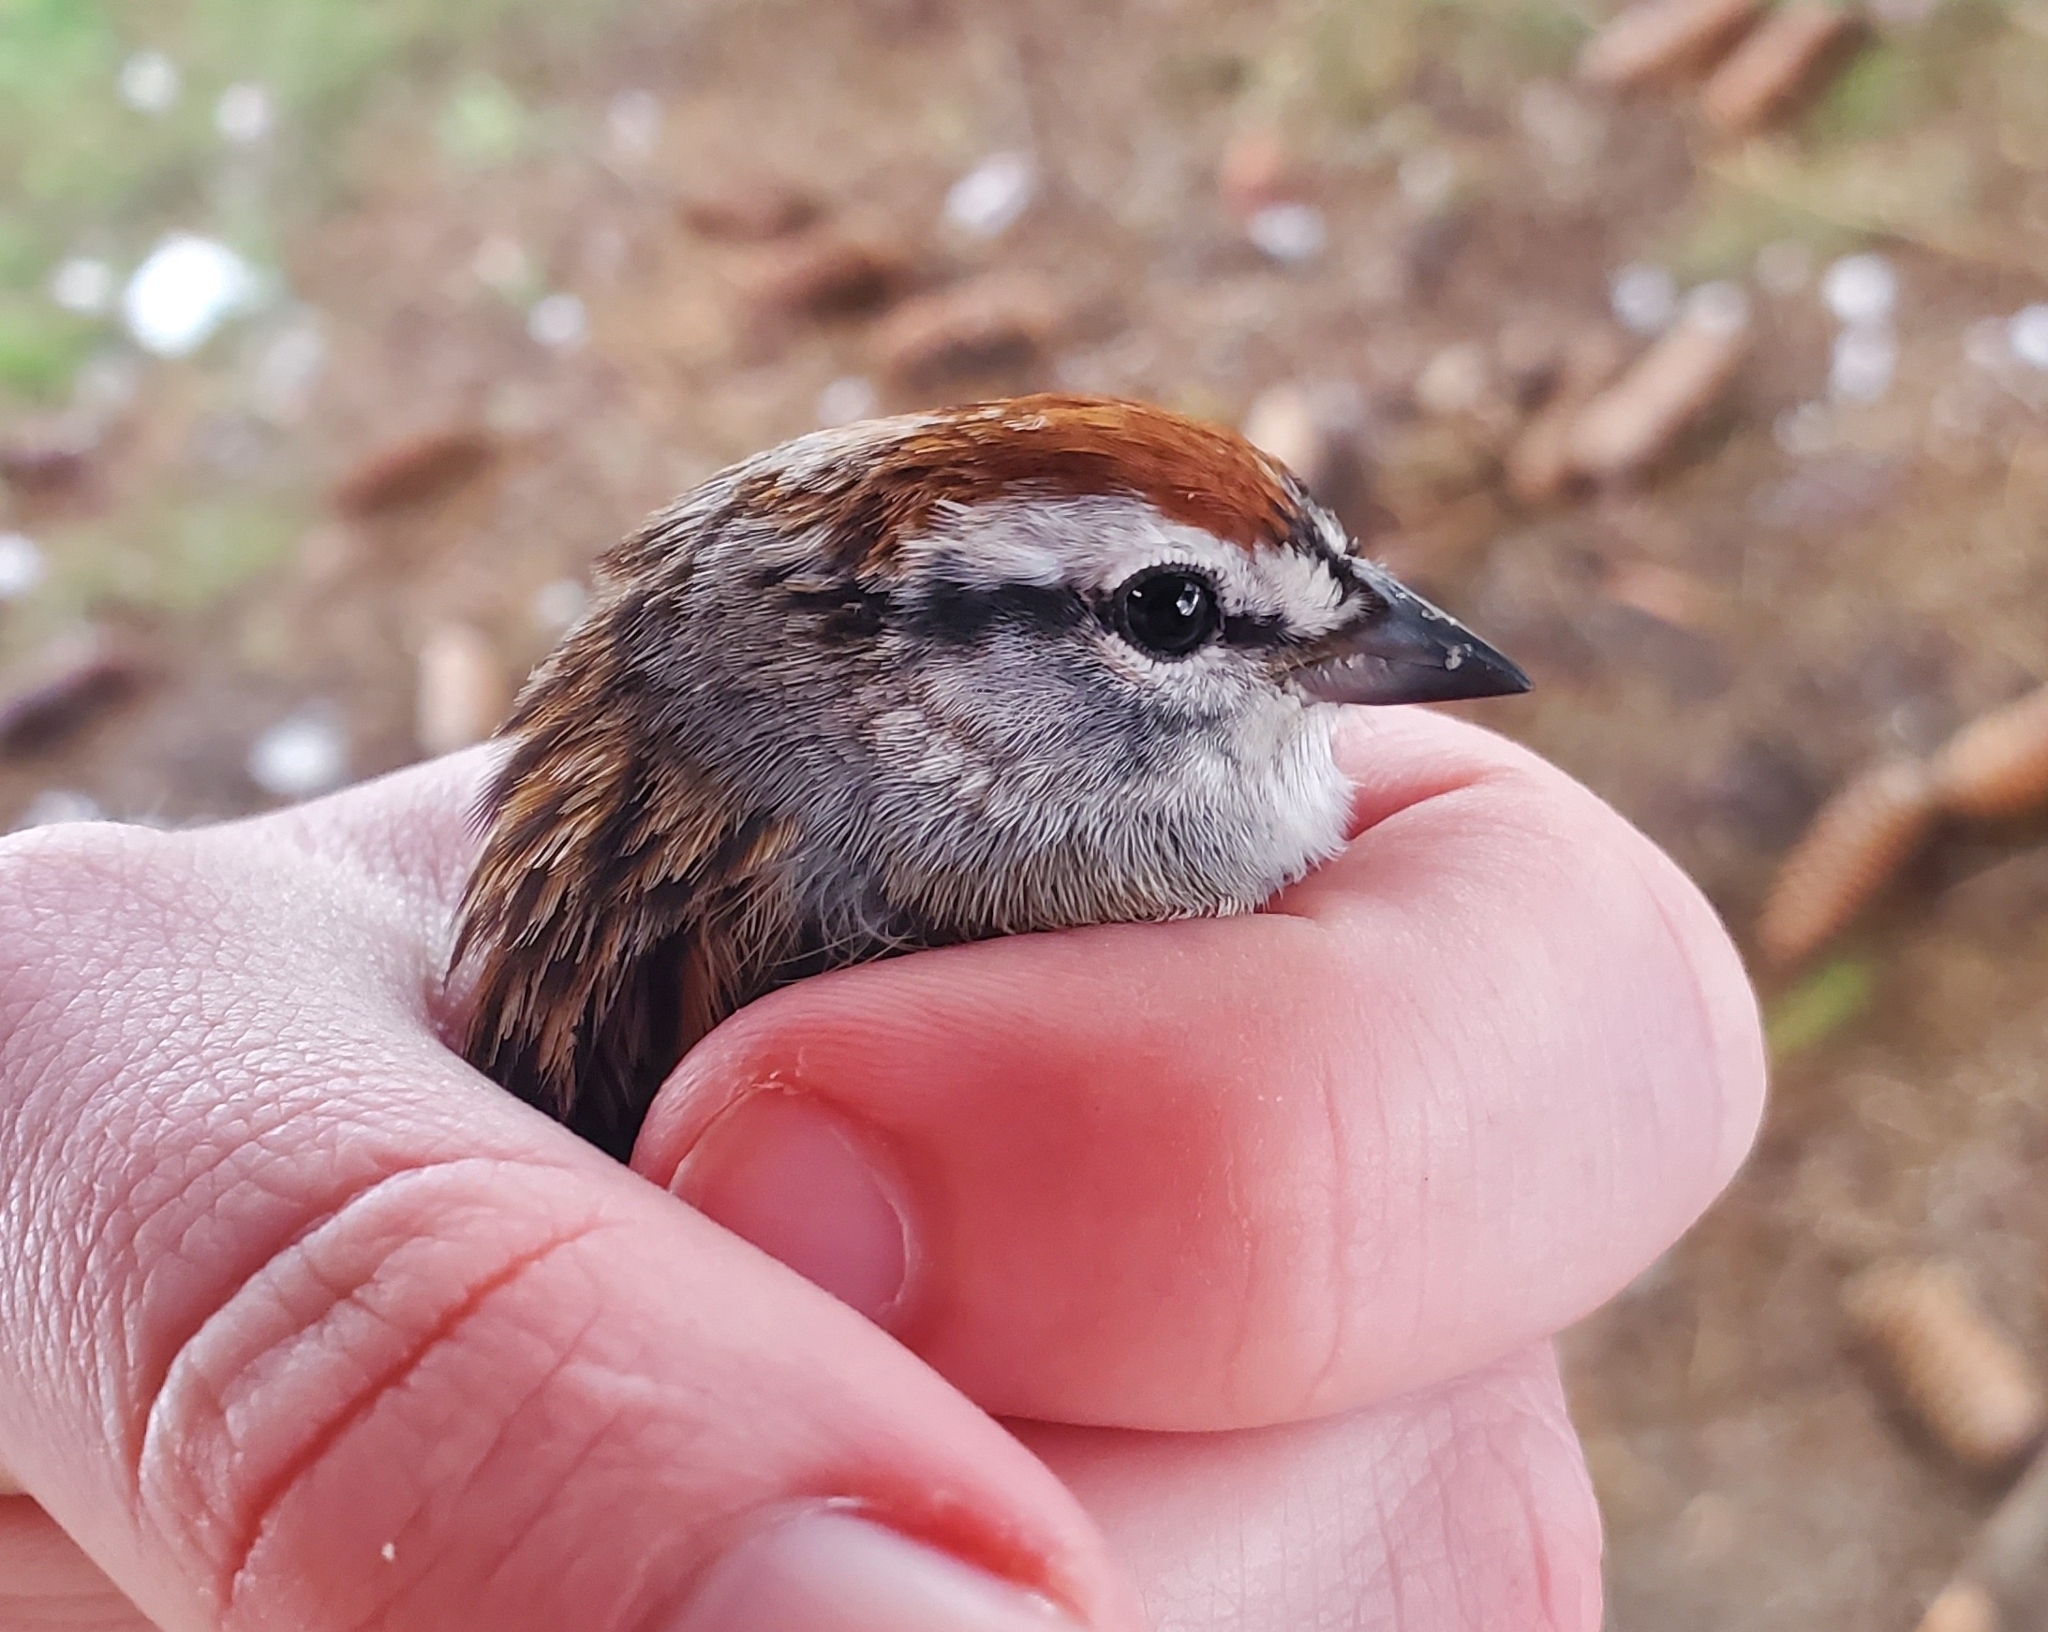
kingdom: Animalia
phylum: Chordata
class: Aves
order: Passeriformes
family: Passerellidae
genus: Spizella
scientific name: Spizella passerina
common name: Chipping sparrow
